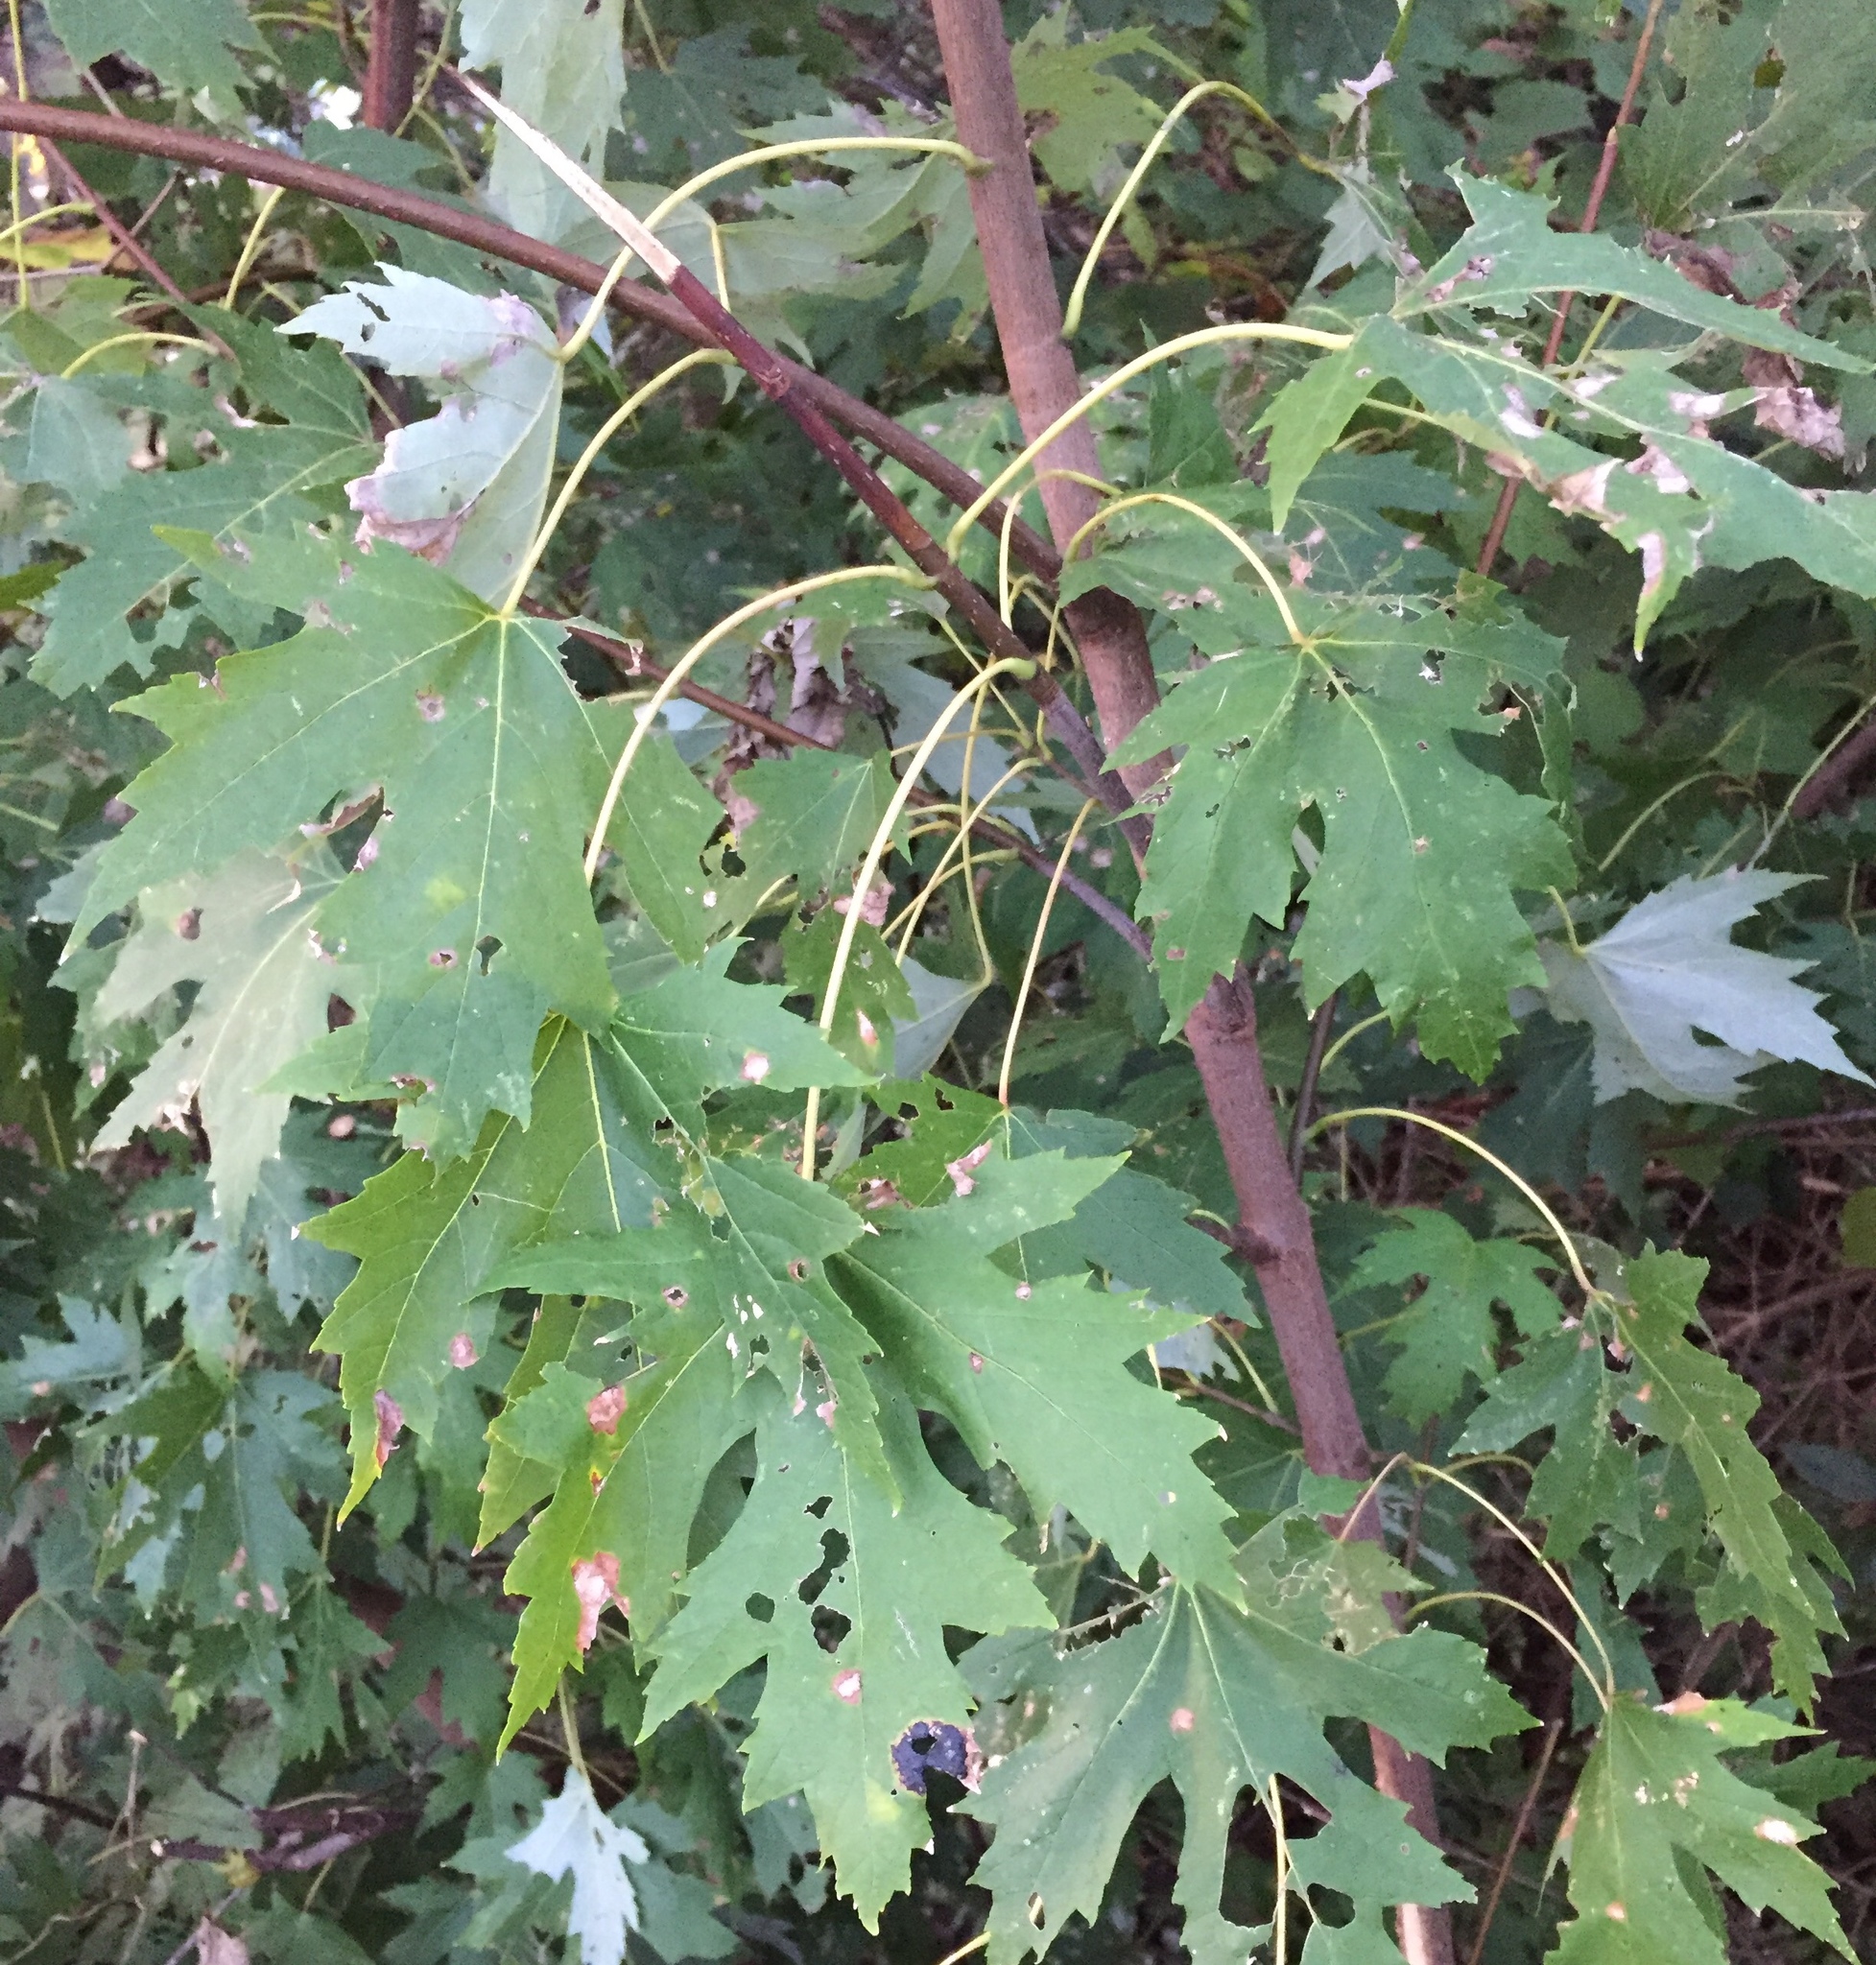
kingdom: Plantae
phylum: Tracheophyta
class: Magnoliopsida
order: Sapindales
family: Sapindaceae
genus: Acer
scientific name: Acer saccharinum
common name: Silver maple
